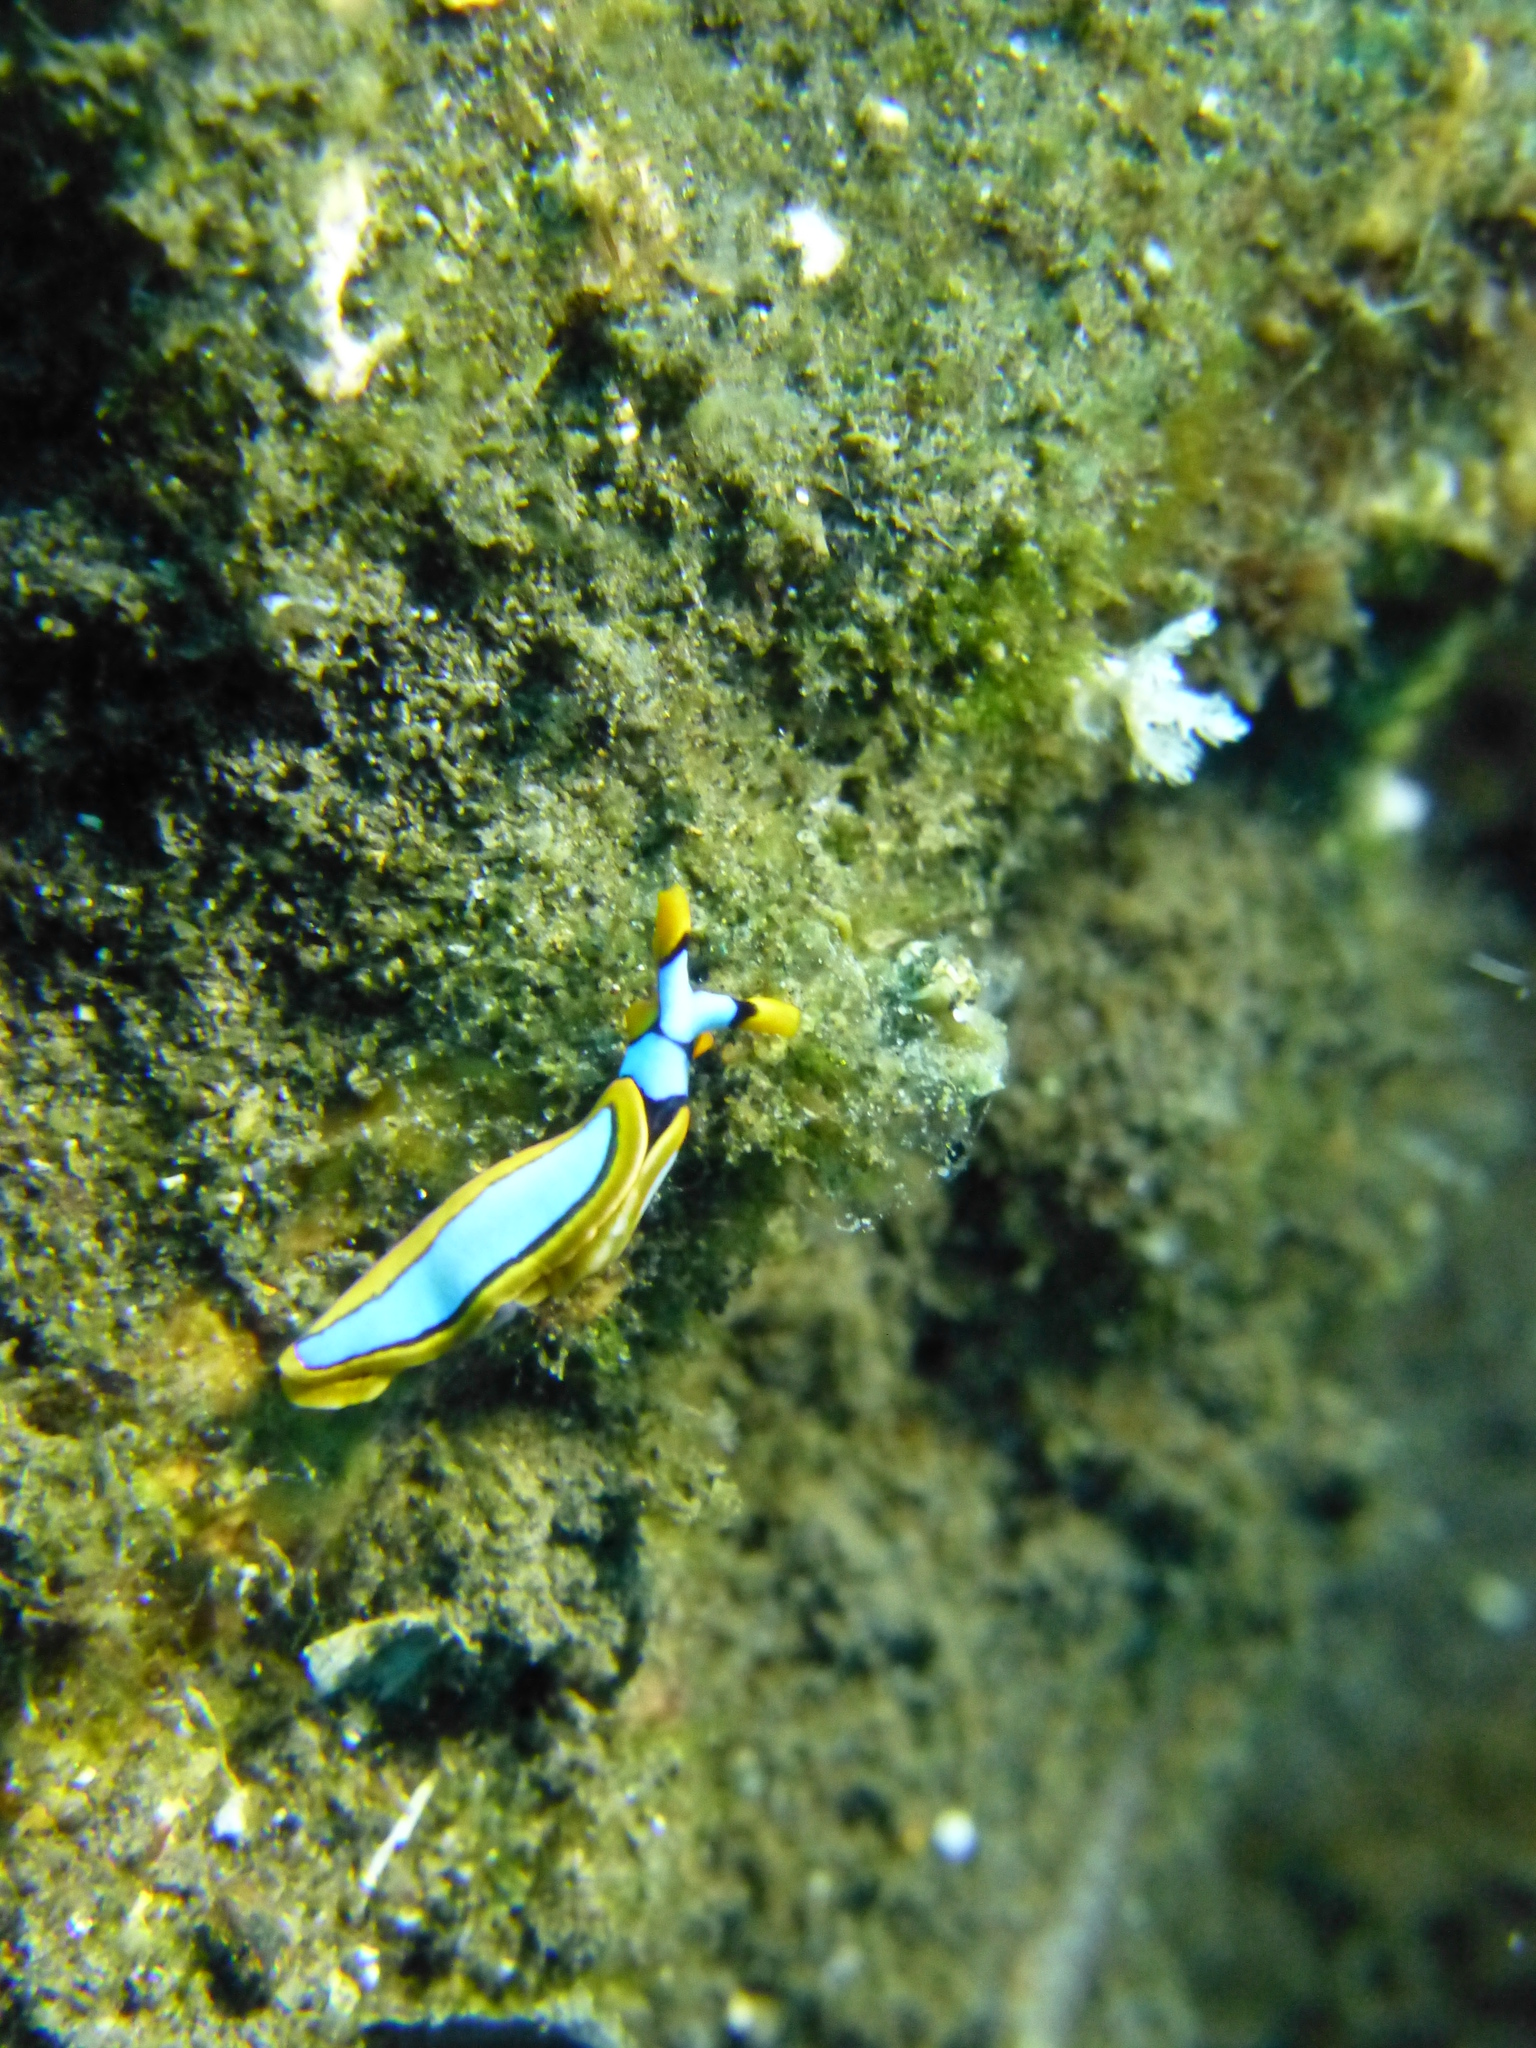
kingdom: Animalia
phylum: Mollusca
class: Gastropoda
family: Plakobranchidae
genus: Thuridilla
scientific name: Thuridilla lineolata
